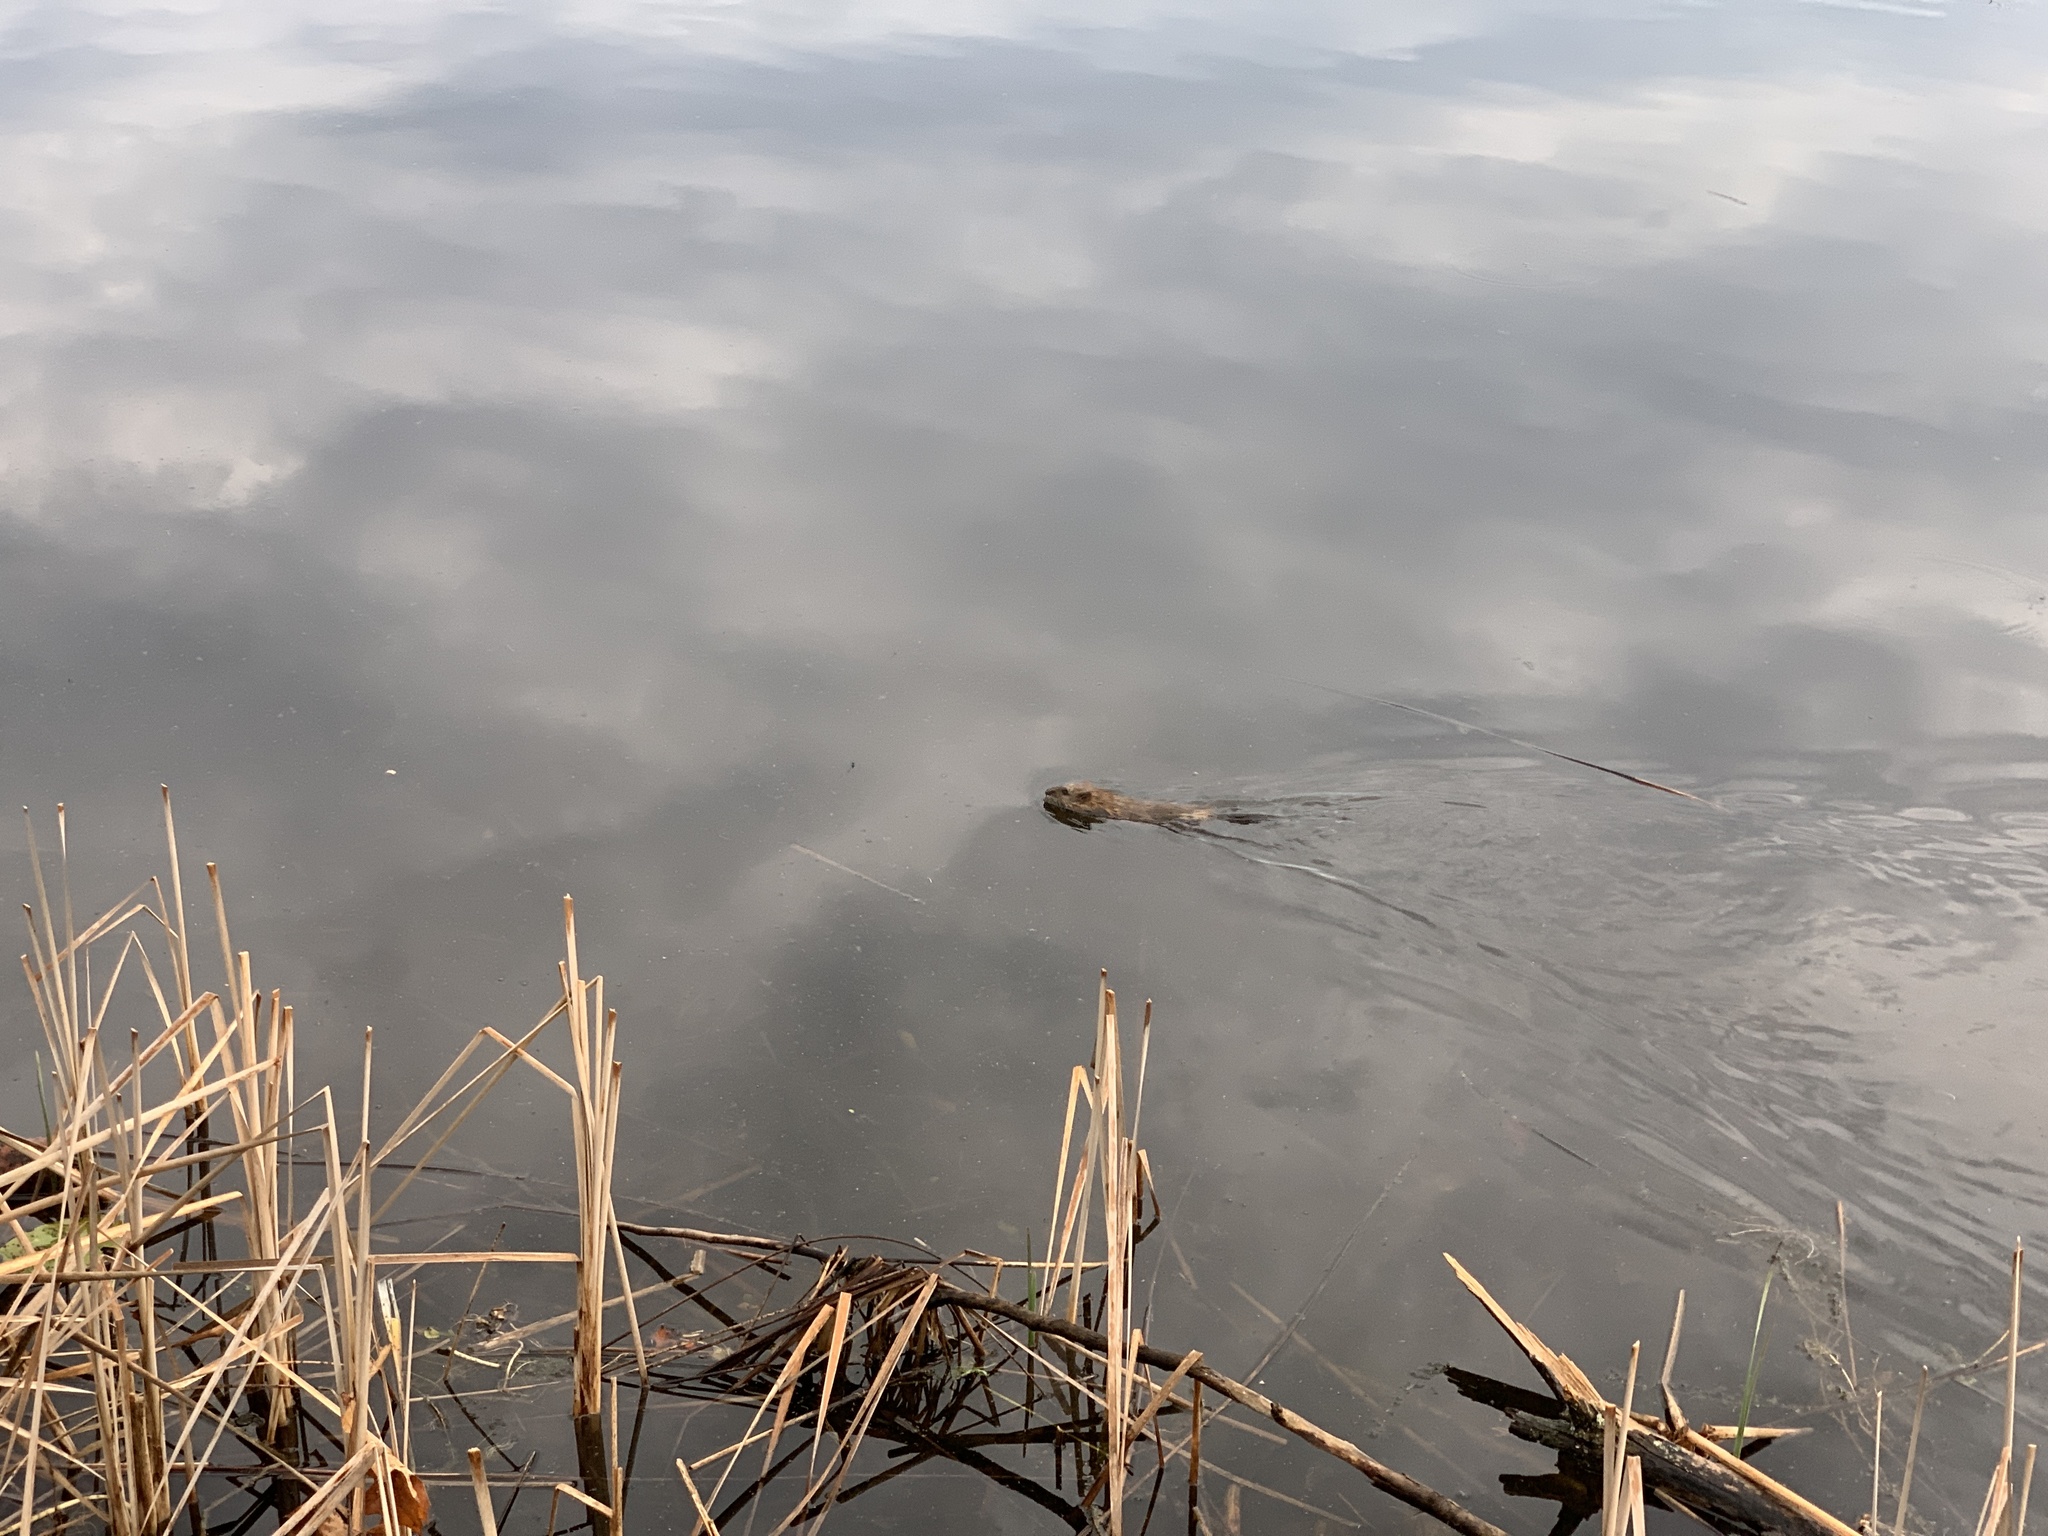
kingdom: Animalia
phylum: Chordata
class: Mammalia
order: Rodentia
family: Cricetidae
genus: Ondatra
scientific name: Ondatra zibethicus
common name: Muskrat
